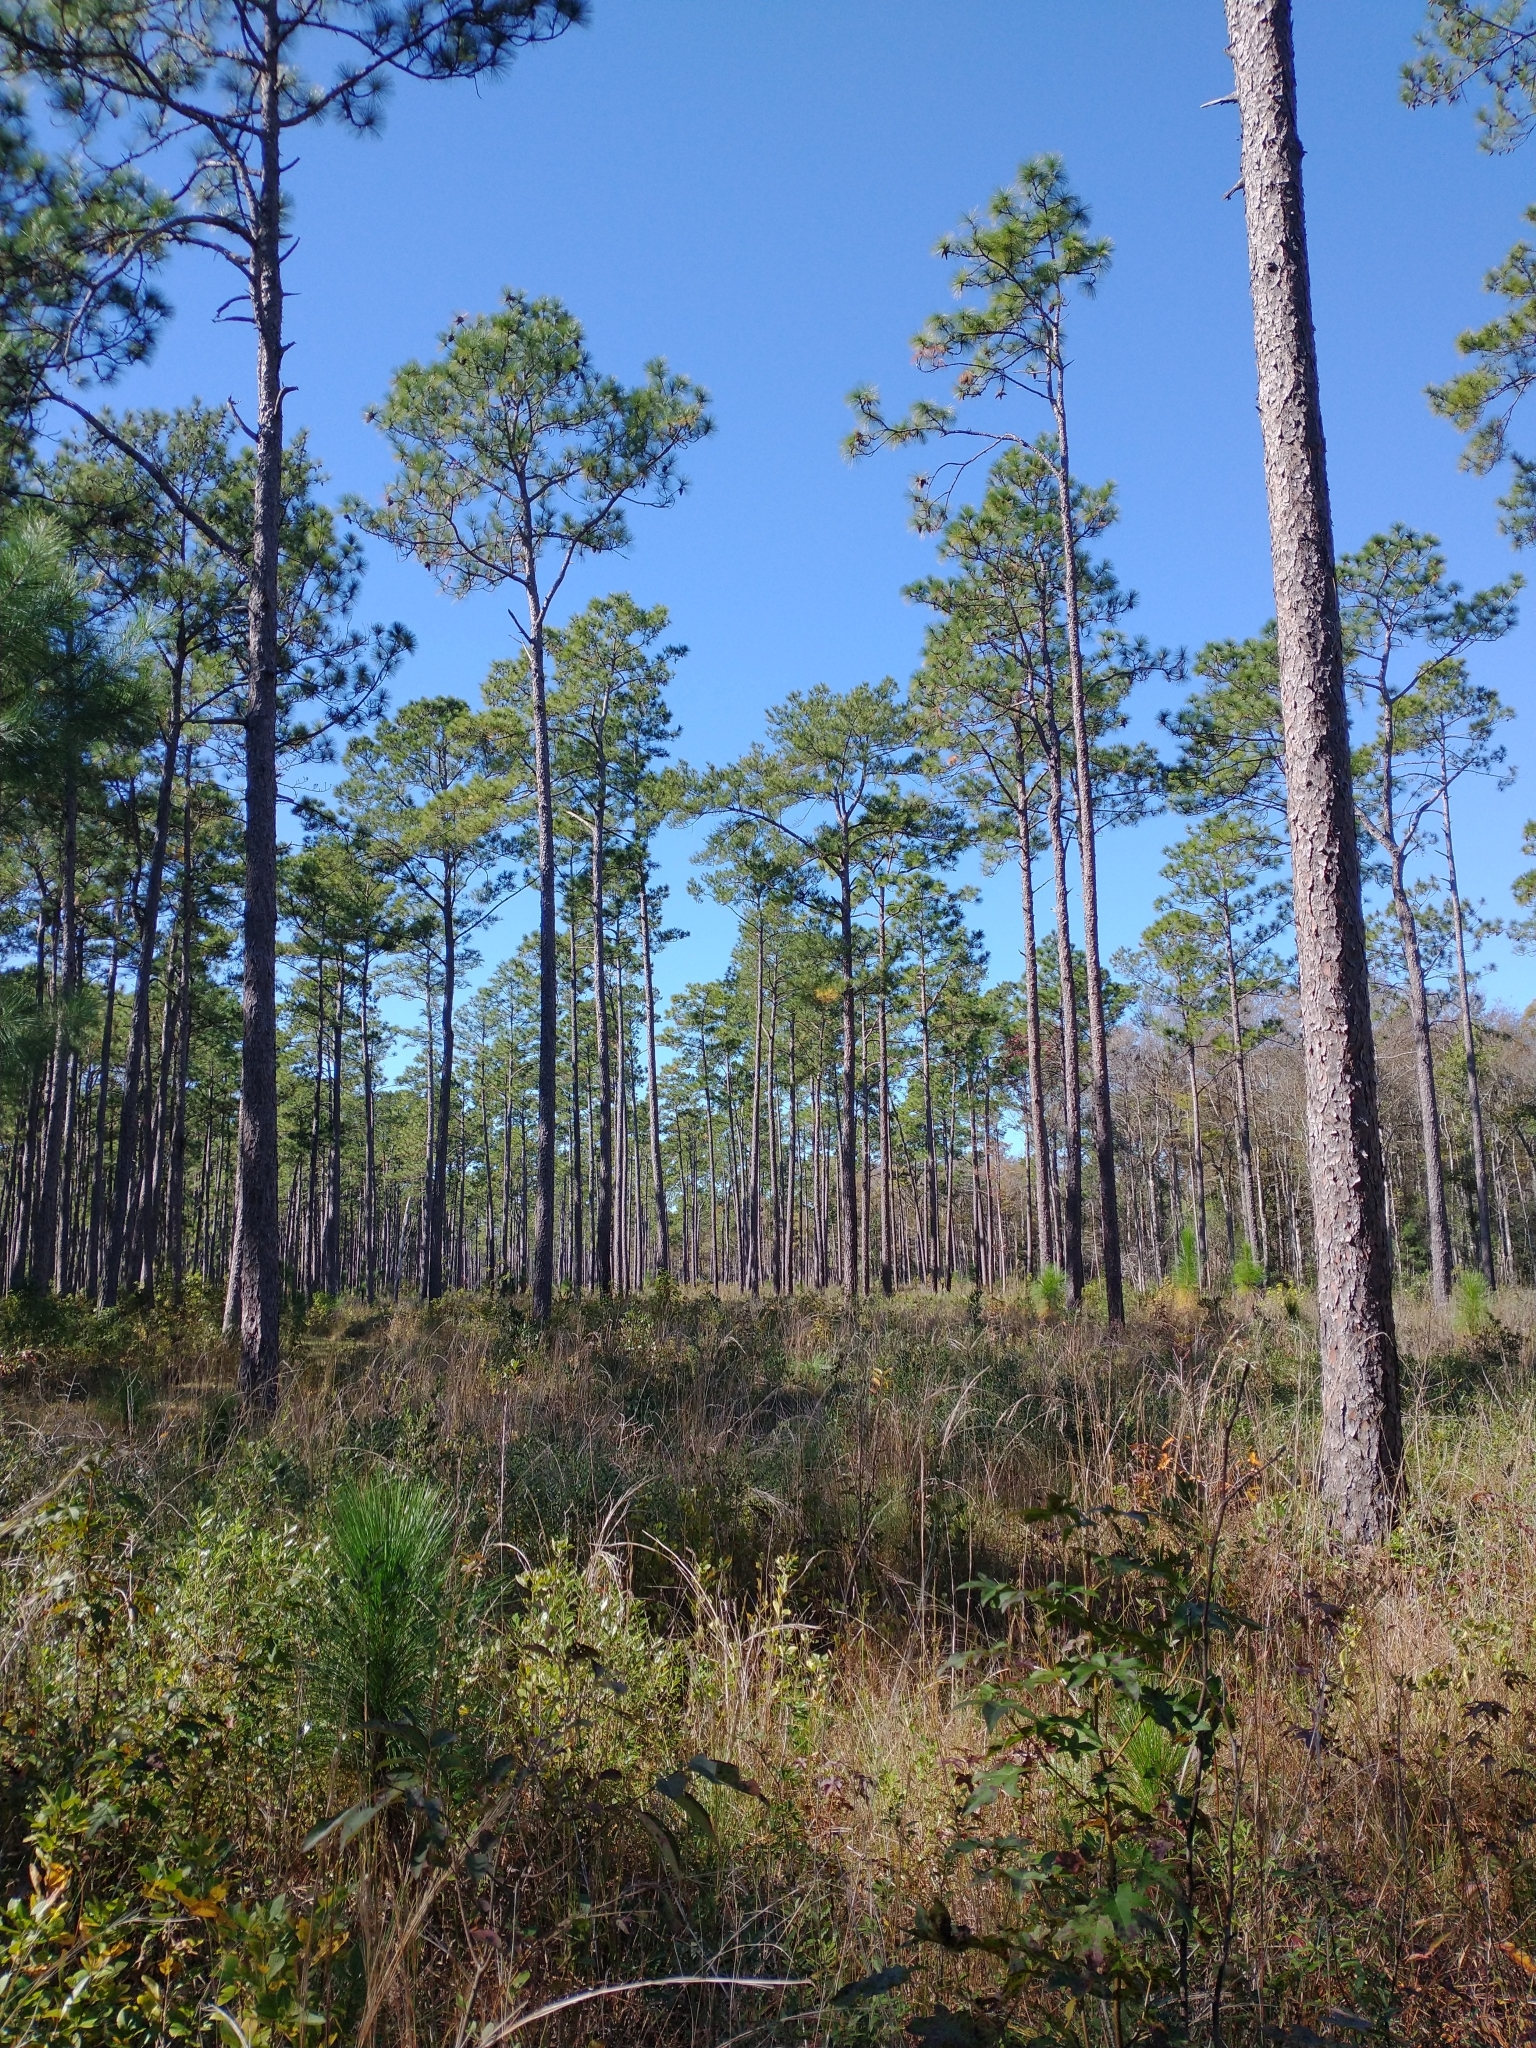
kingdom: Plantae
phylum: Tracheophyta
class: Pinopsida
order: Pinales
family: Pinaceae
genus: Pinus
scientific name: Pinus palustris
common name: Longleaf pine
